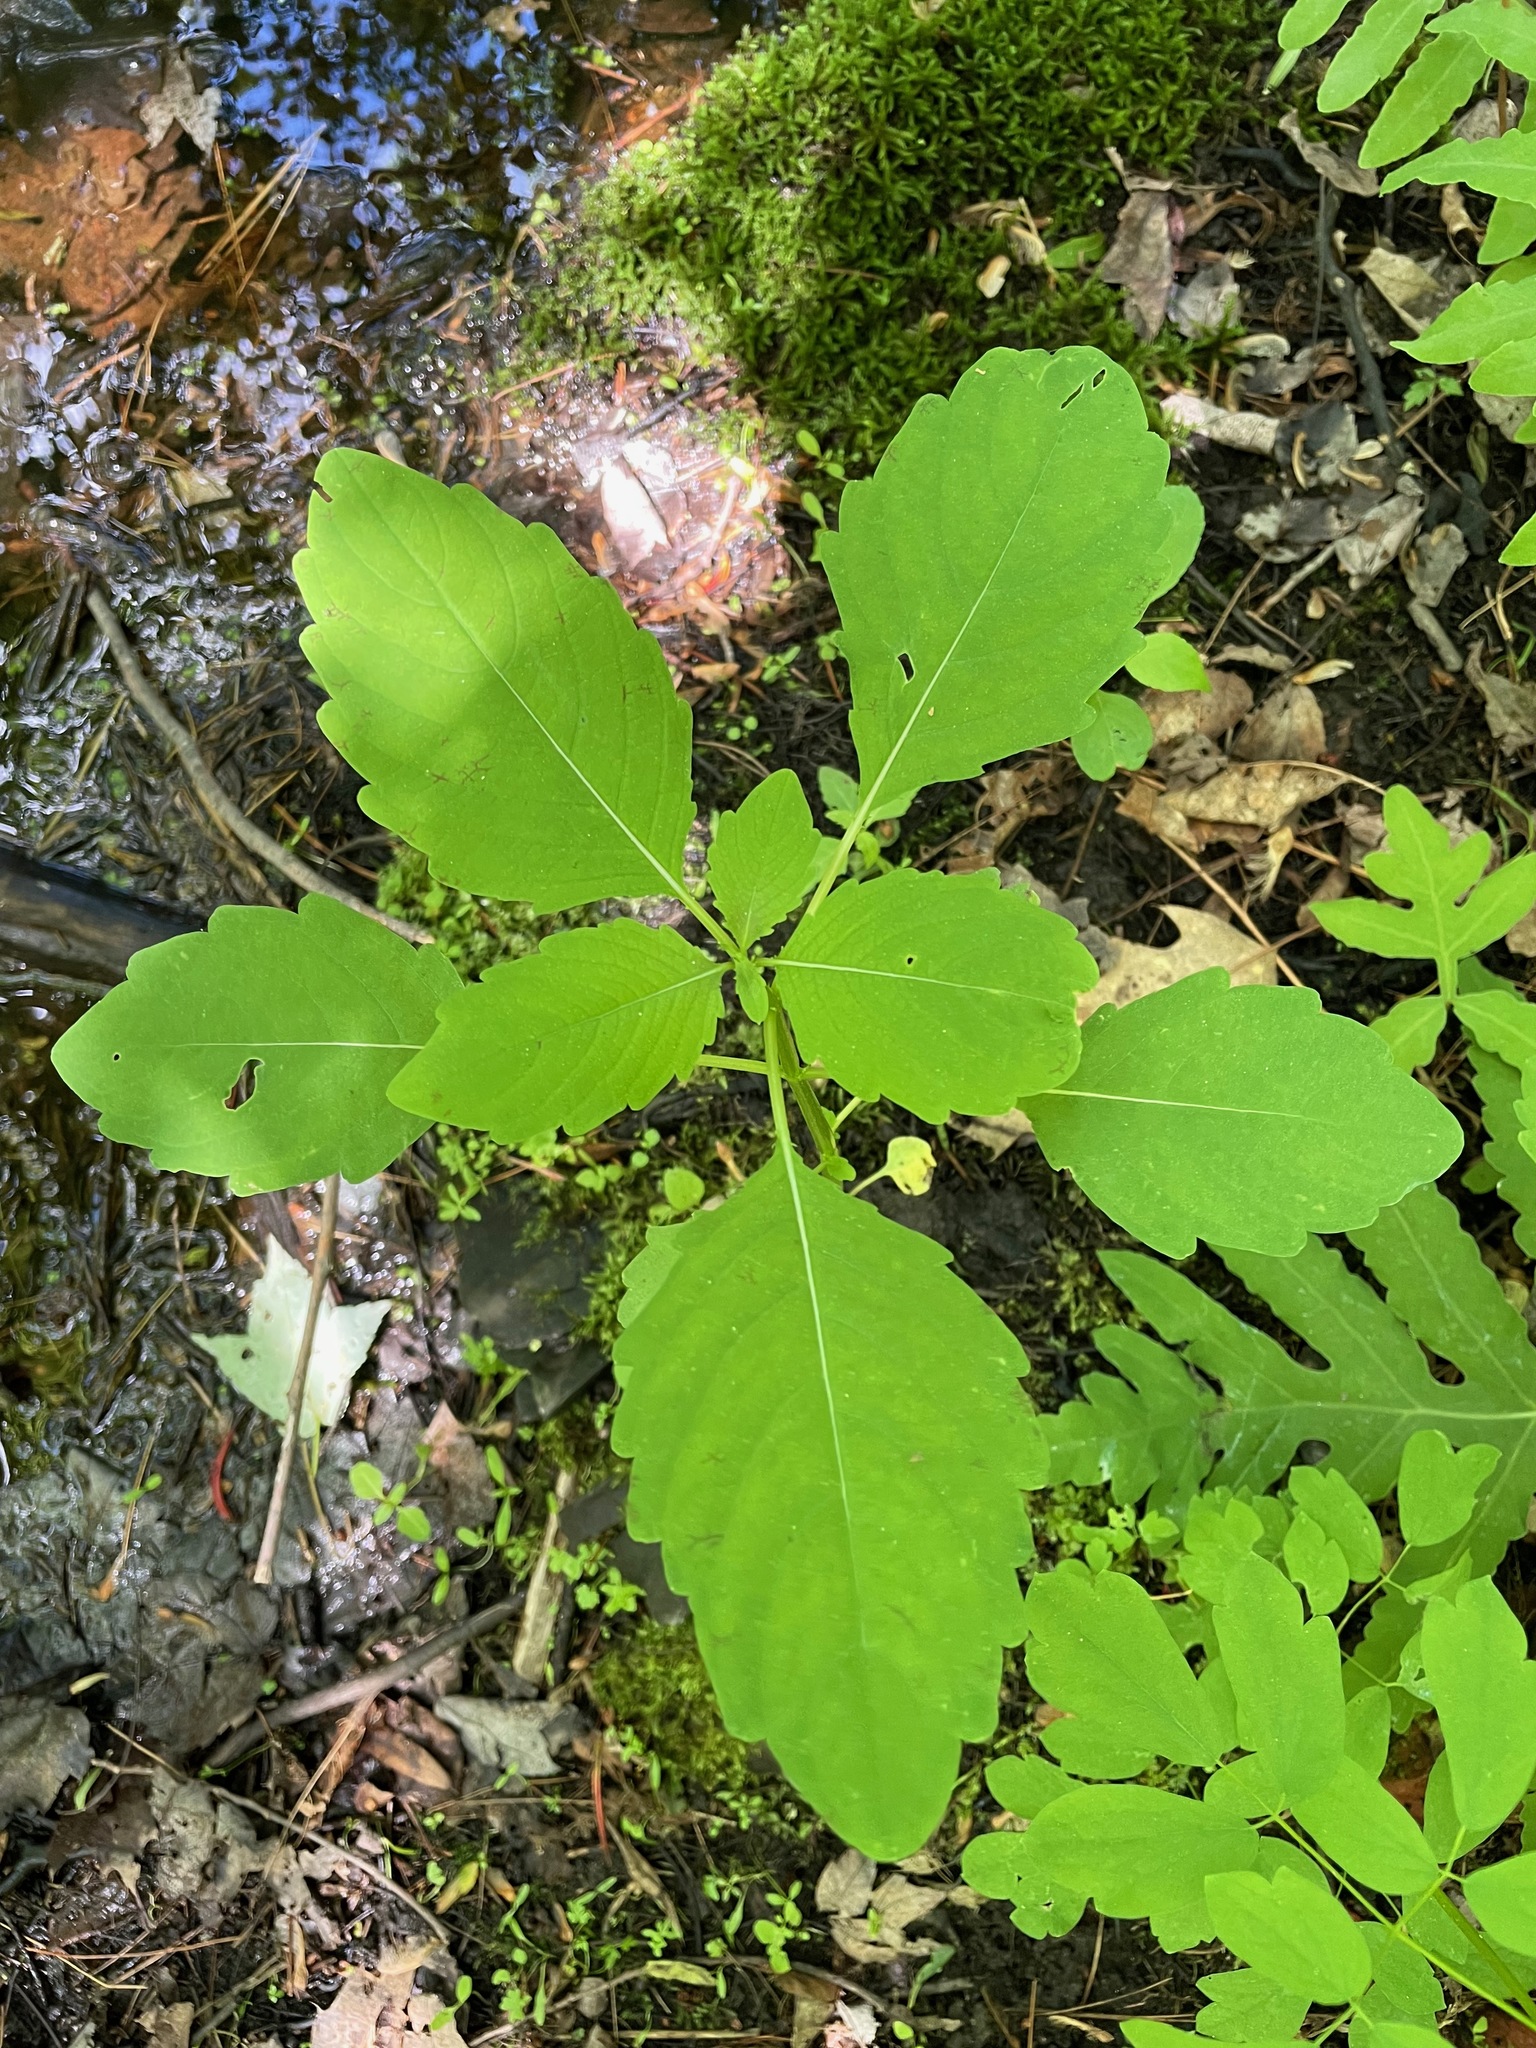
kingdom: Plantae
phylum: Tracheophyta
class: Magnoliopsida
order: Ericales
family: Balsaminaceae
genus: Impatiens
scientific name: Impatiens
